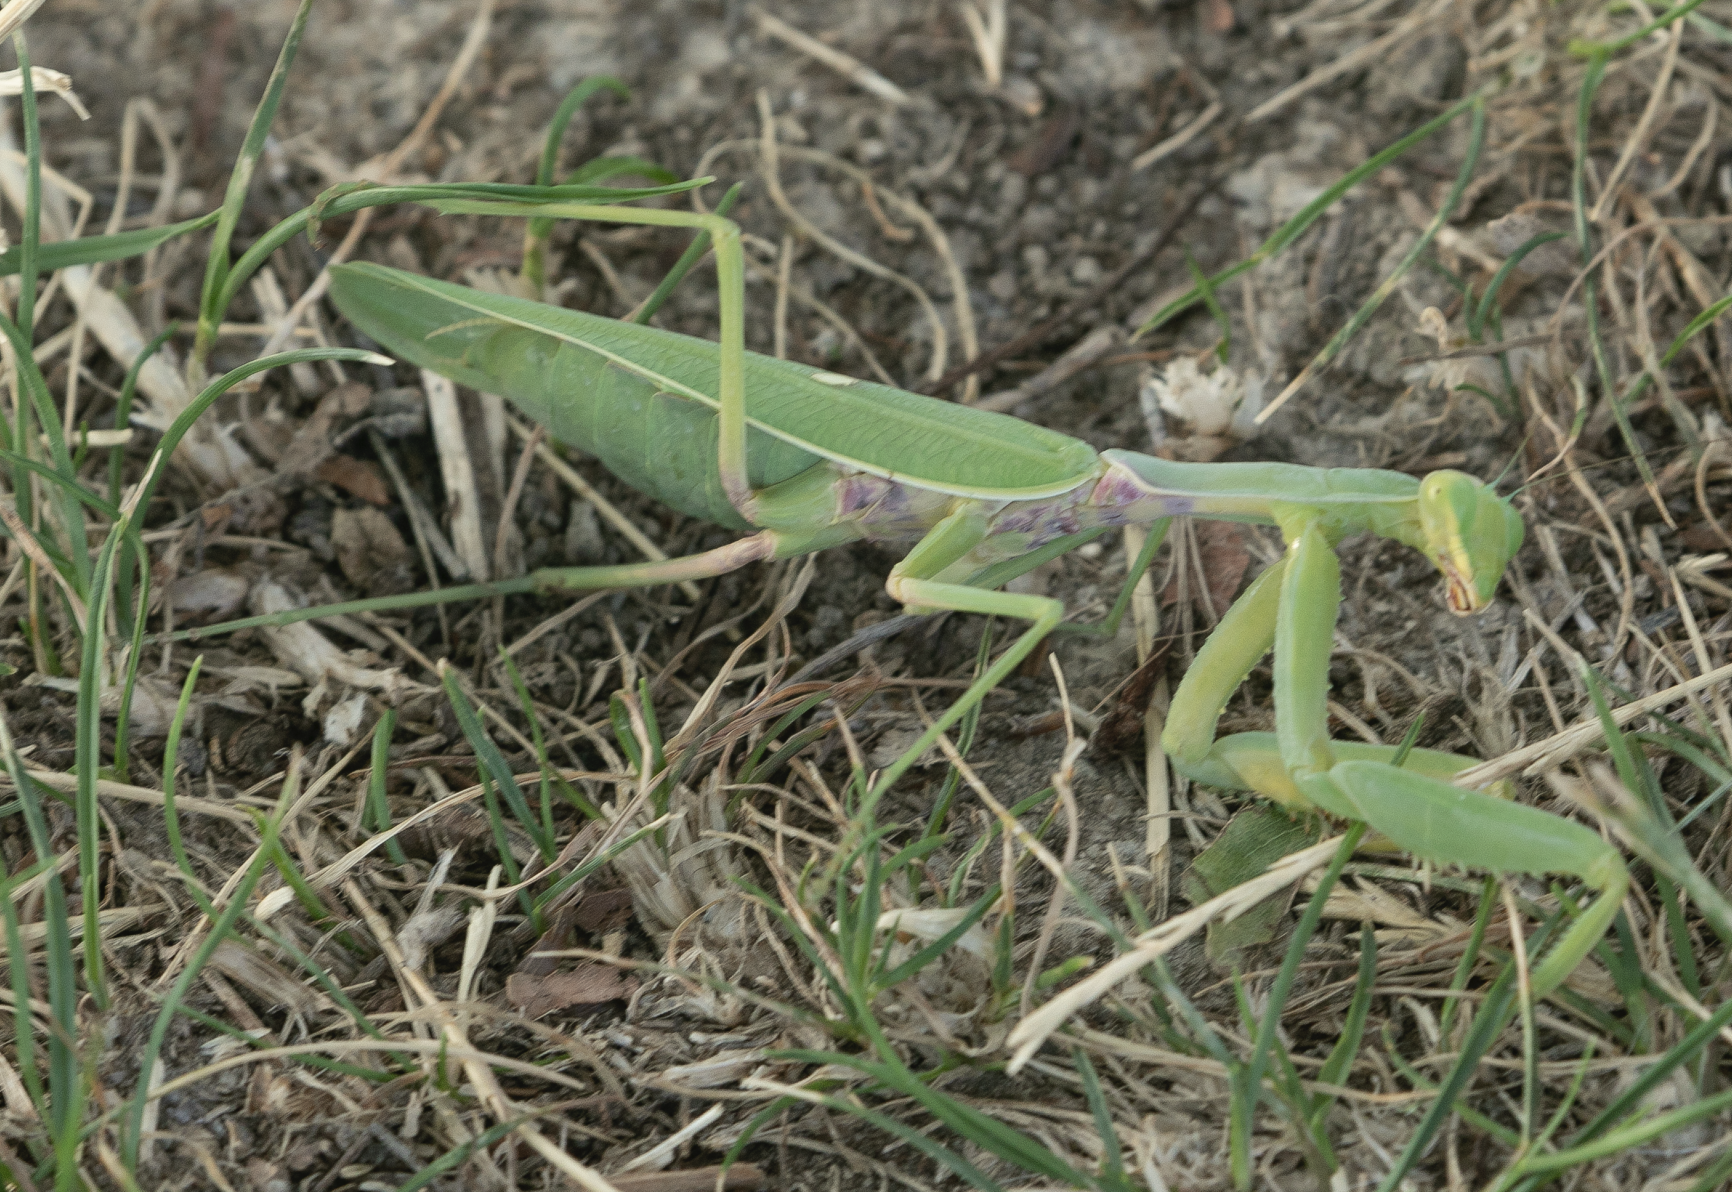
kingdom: Animalia
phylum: Arthropoda
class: Insecta
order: Mantodea
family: Mantidae
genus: Hierodula
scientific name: Hierodula transcaucasica
